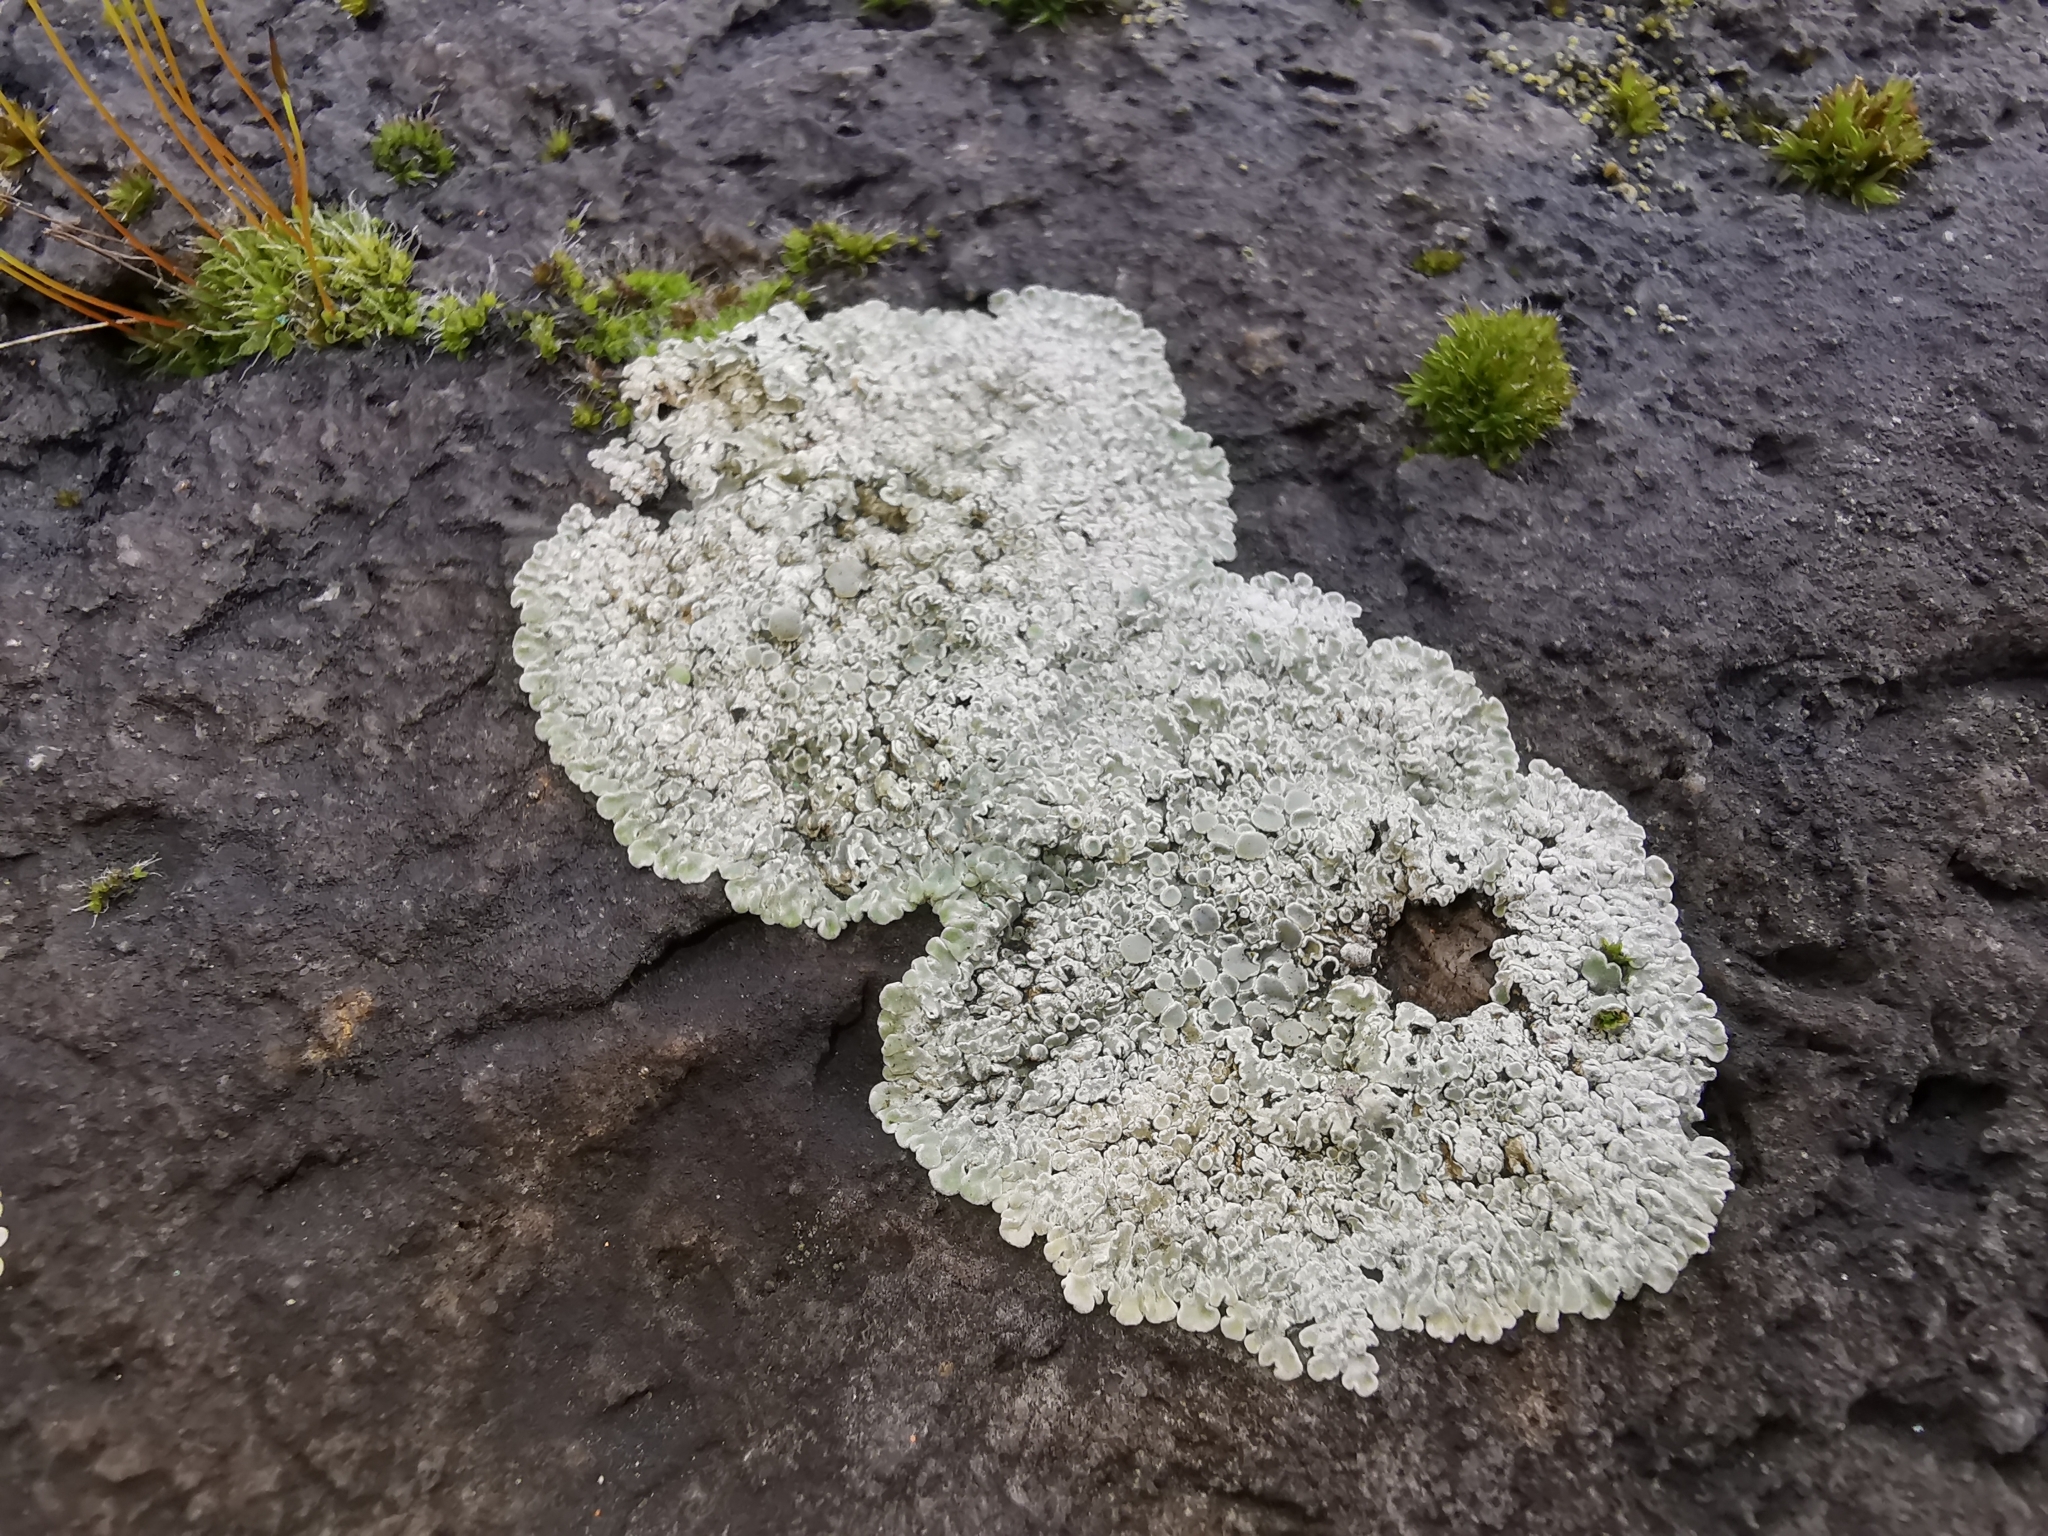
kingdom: Fungi
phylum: Ascomycota
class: Lecanoromycetes
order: Lecanorales
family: Lecanoraceae
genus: Protoparmeliopsis
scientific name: Protoparmeliopsis muralis
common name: Stonewall rim lichen
